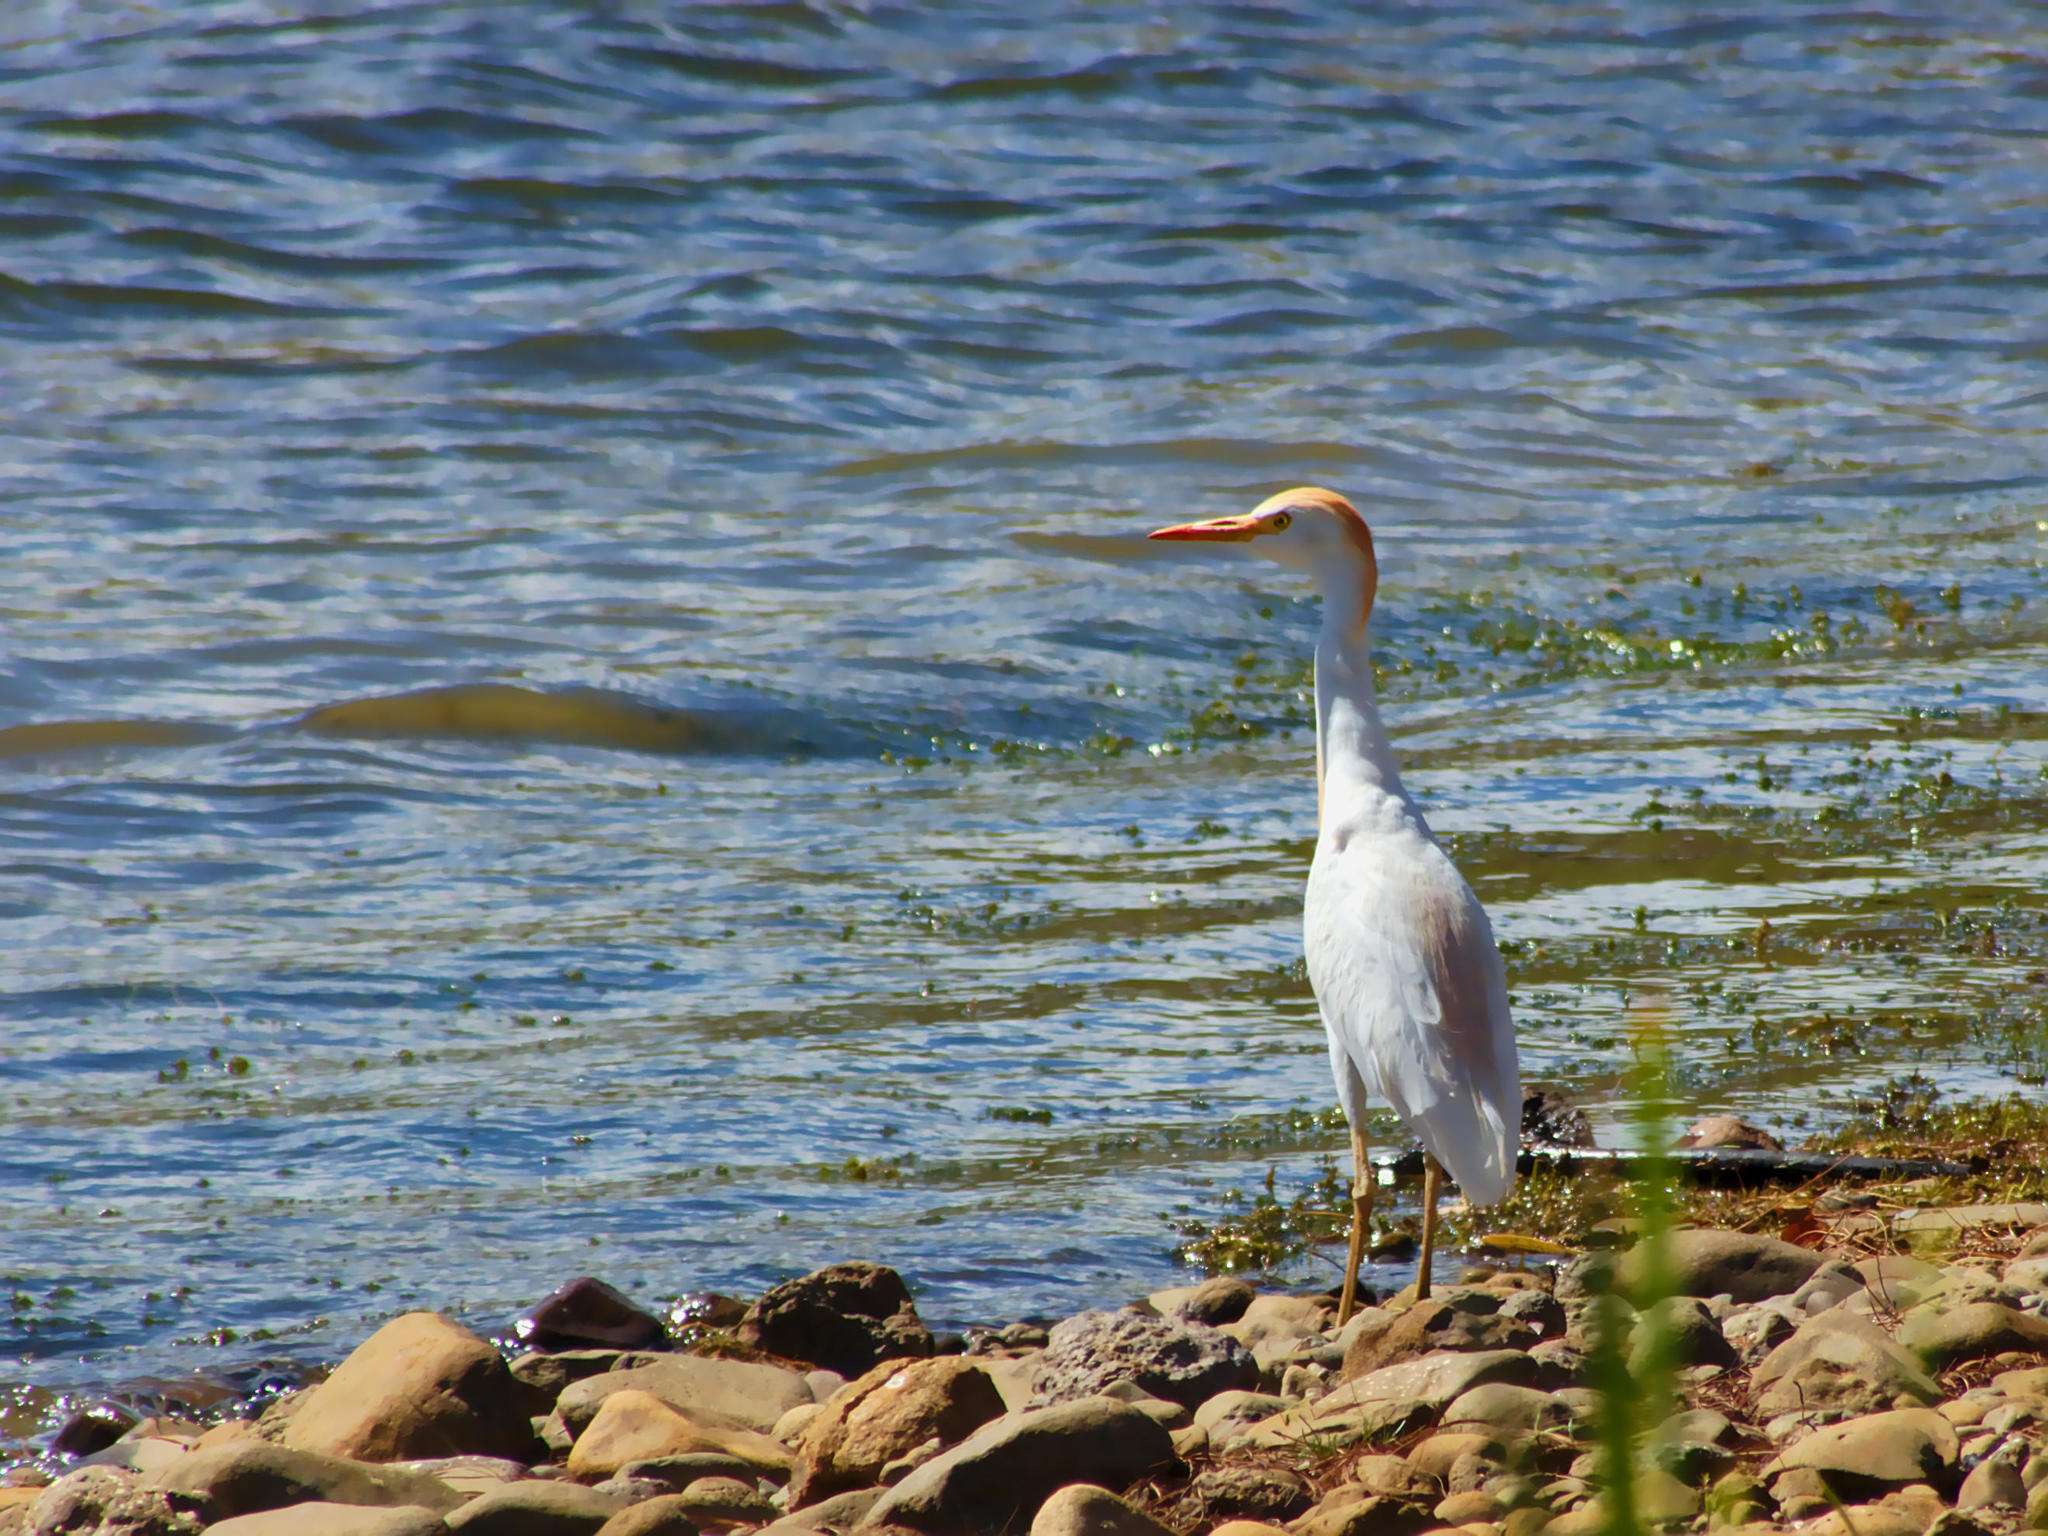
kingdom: Animalia
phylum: Chordata
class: Aves
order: Pelecaniformes
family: Ardeidae
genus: Bubulcus
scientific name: Bubulcus ibis
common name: Cattle egret
